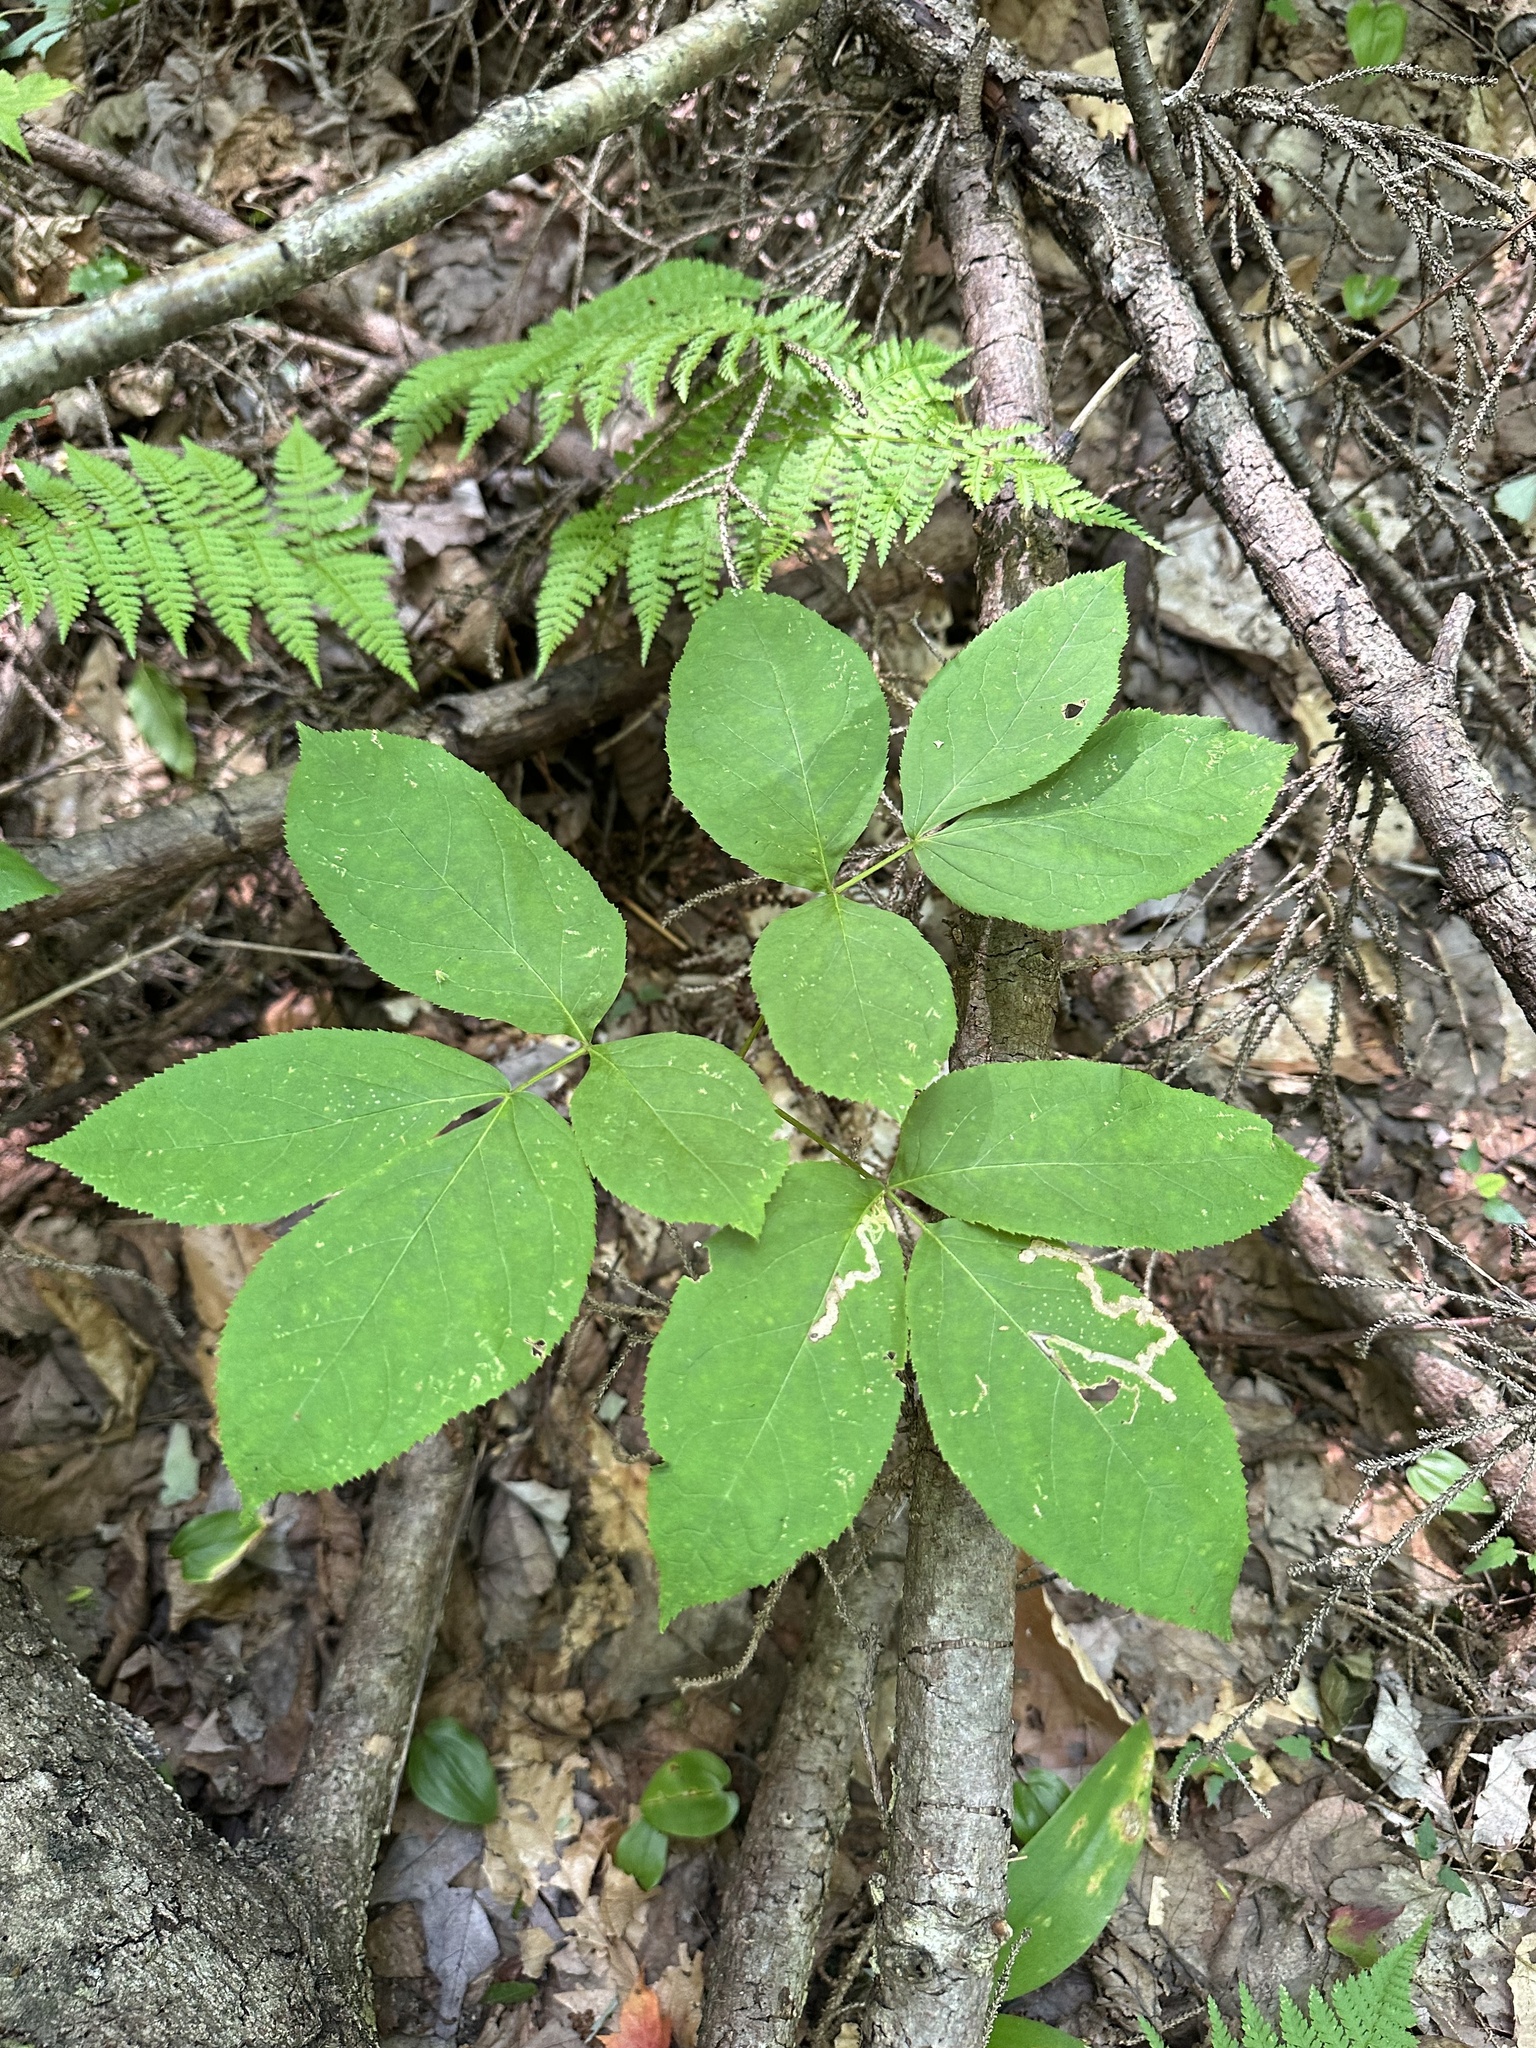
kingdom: Plantae
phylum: Tracheophyta
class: Magnoliopsida
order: Apiales
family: Araliaceae
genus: Aralia
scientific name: Aralia nudicaulis
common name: Wild sarsaparilla
